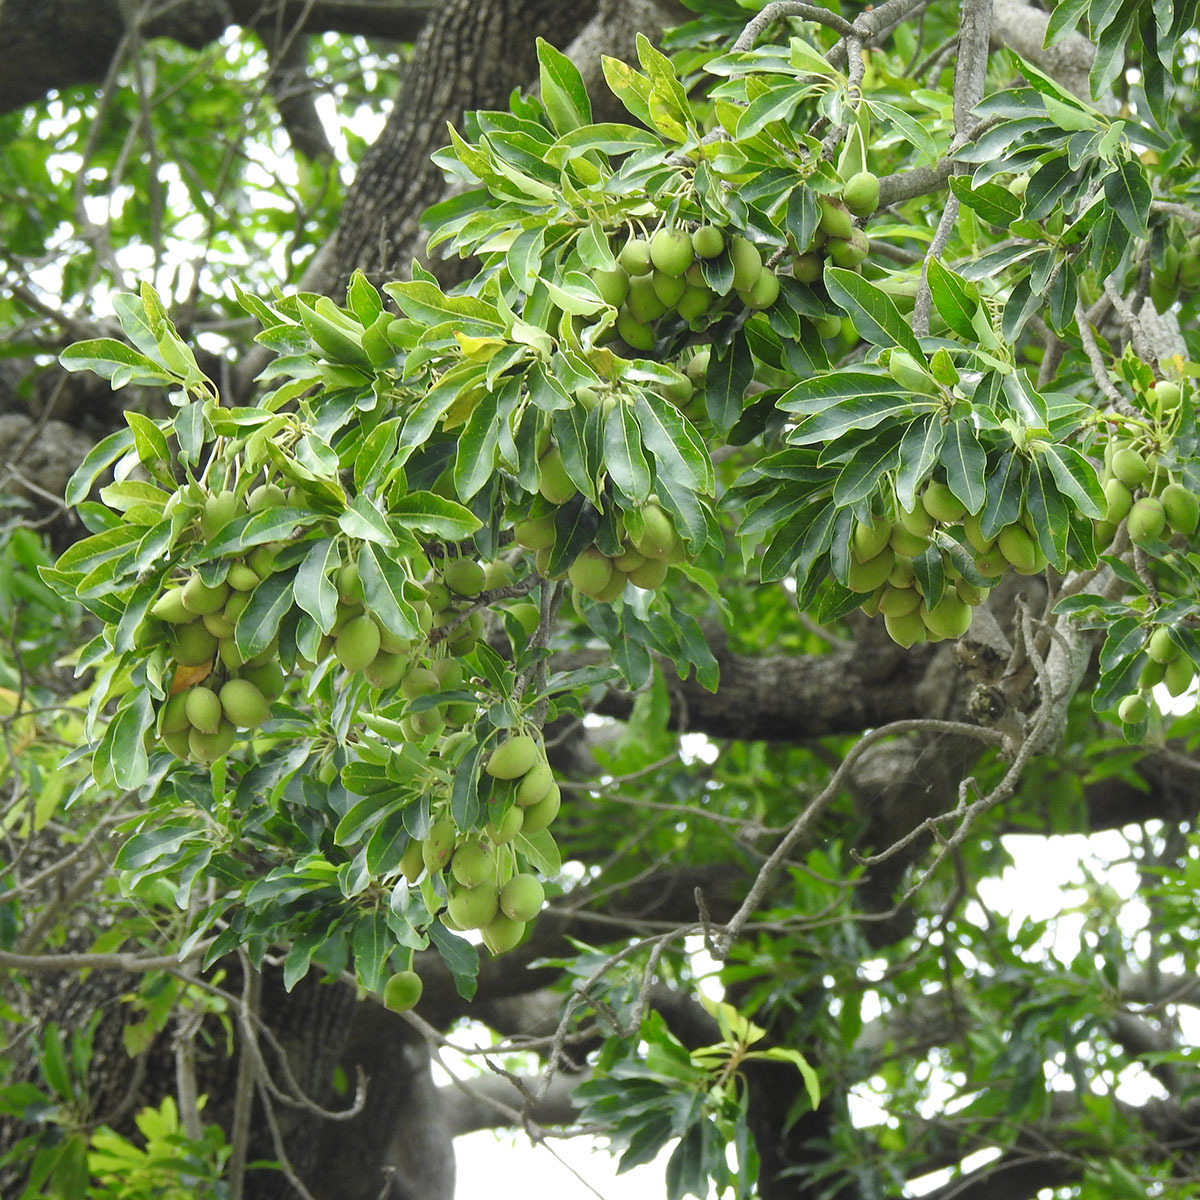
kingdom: Plantae
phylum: Tracheophyta
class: Magnoliopsida
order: Ericales
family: Sapotaceae
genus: Madhuca
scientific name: Madhuca longifolia
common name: Mowra-buttertree
